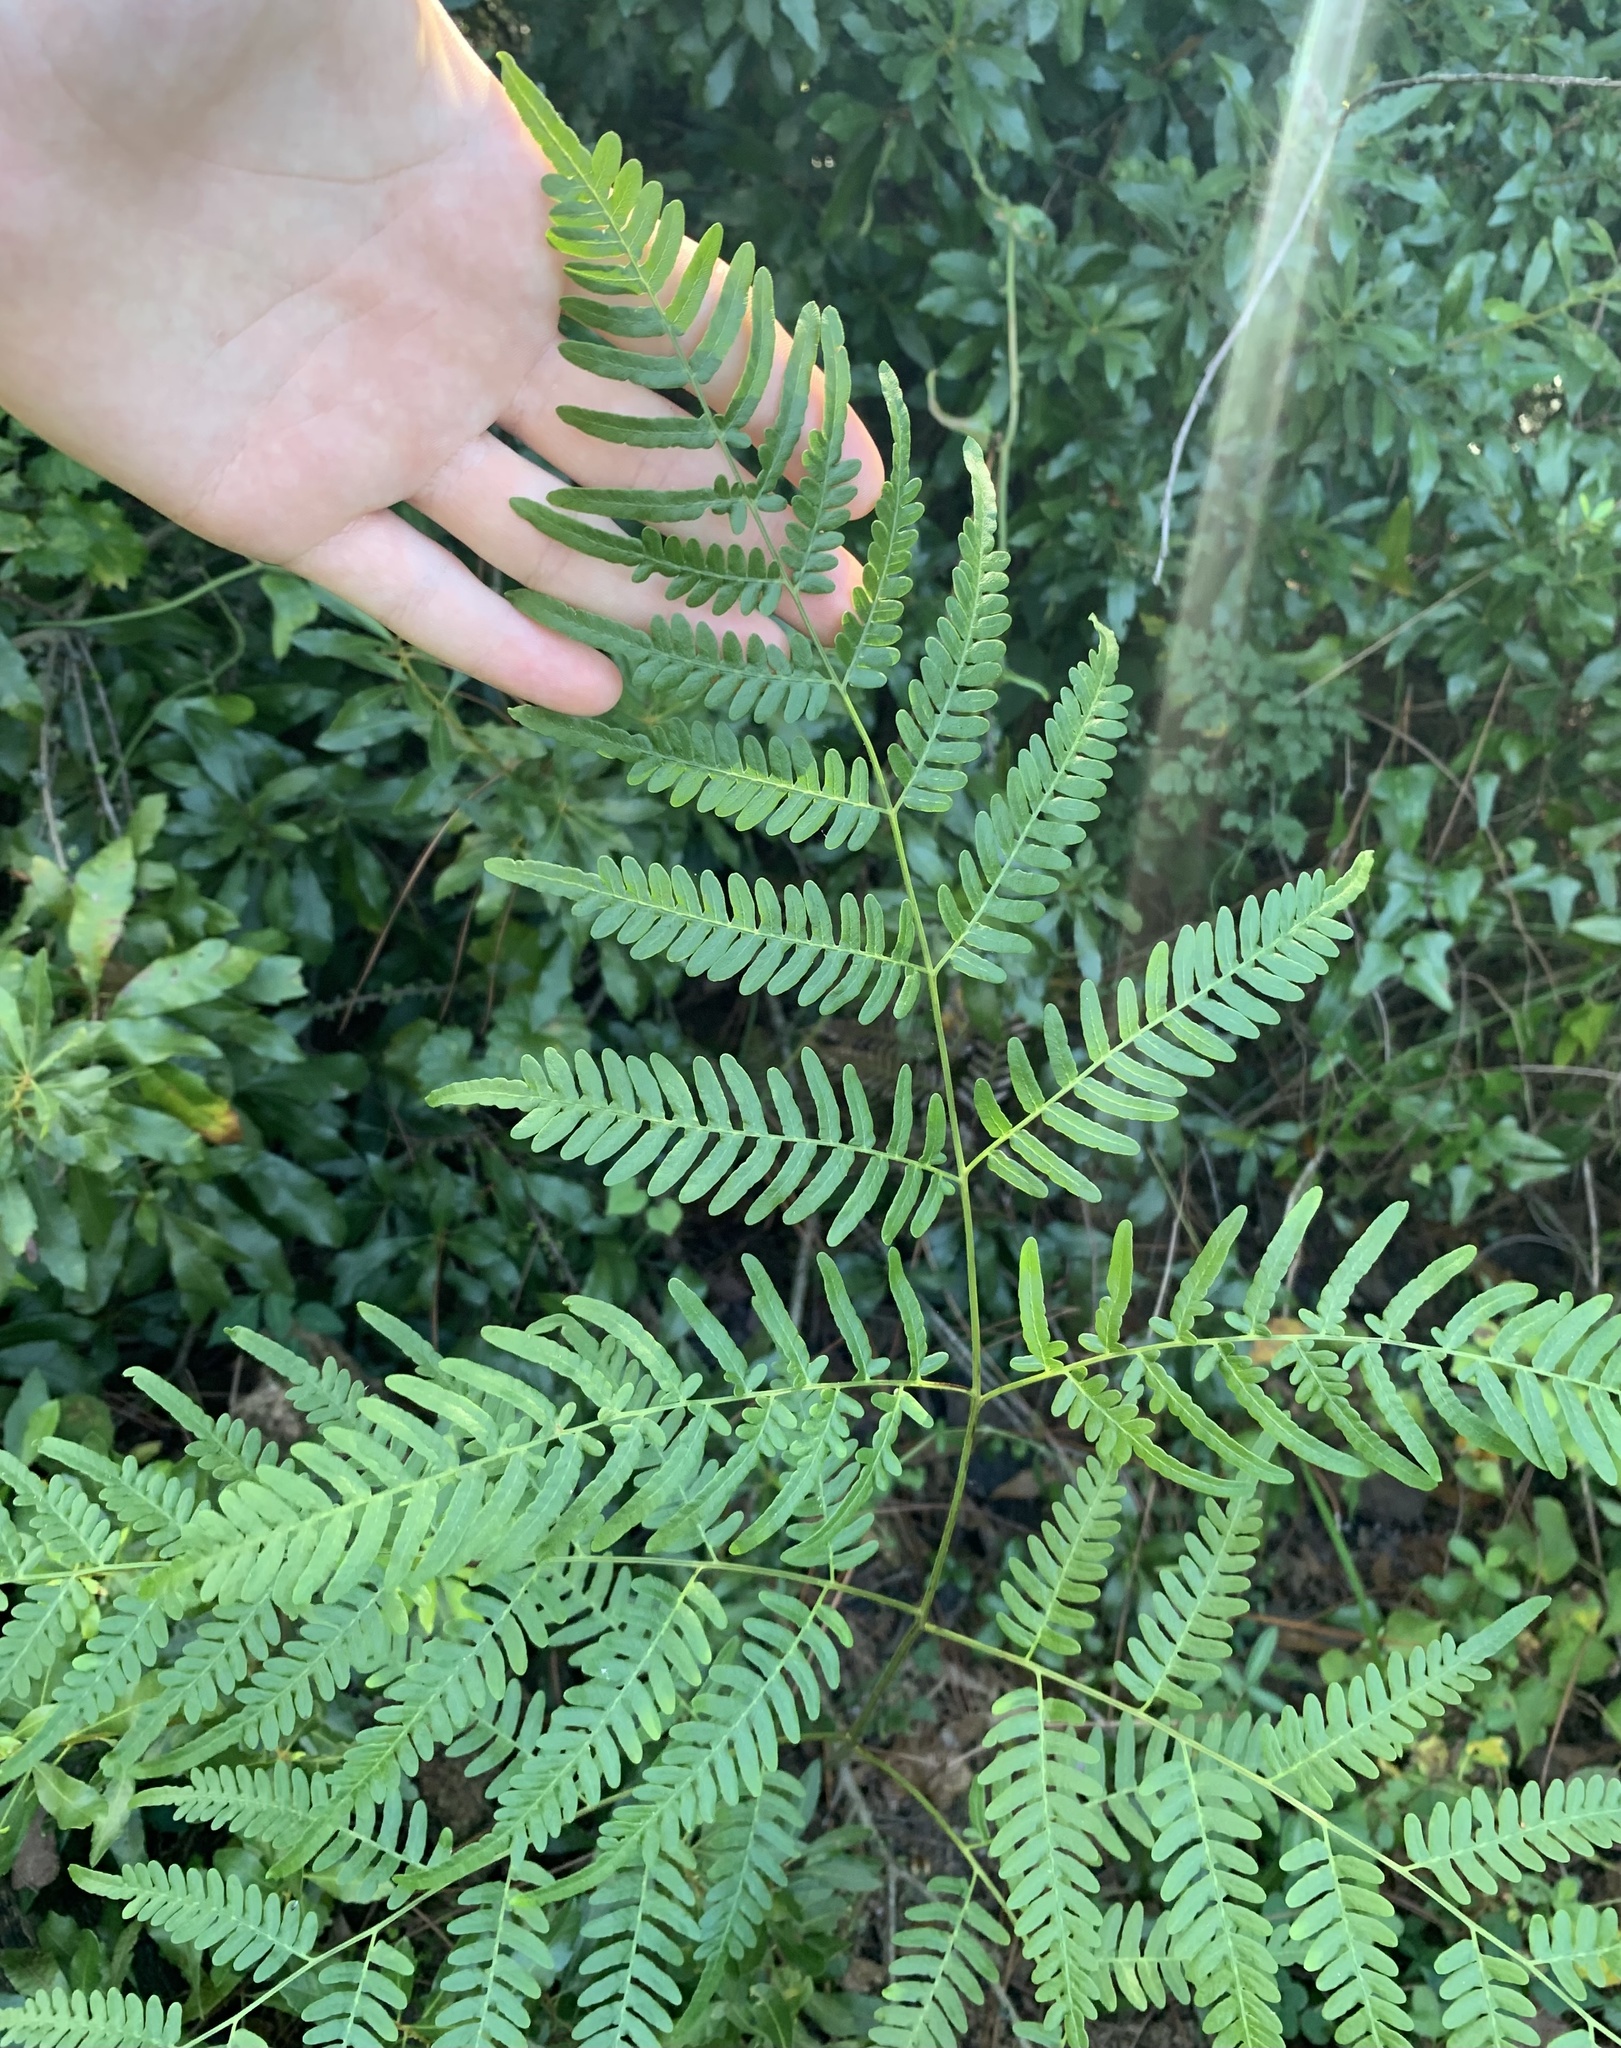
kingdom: Plantae
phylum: Tracheophyta
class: Polypodiopsida
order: Polypodiales
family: Dennstaedtiaceae
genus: Pteridium
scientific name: Pteridium aquilinum
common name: Bracken
